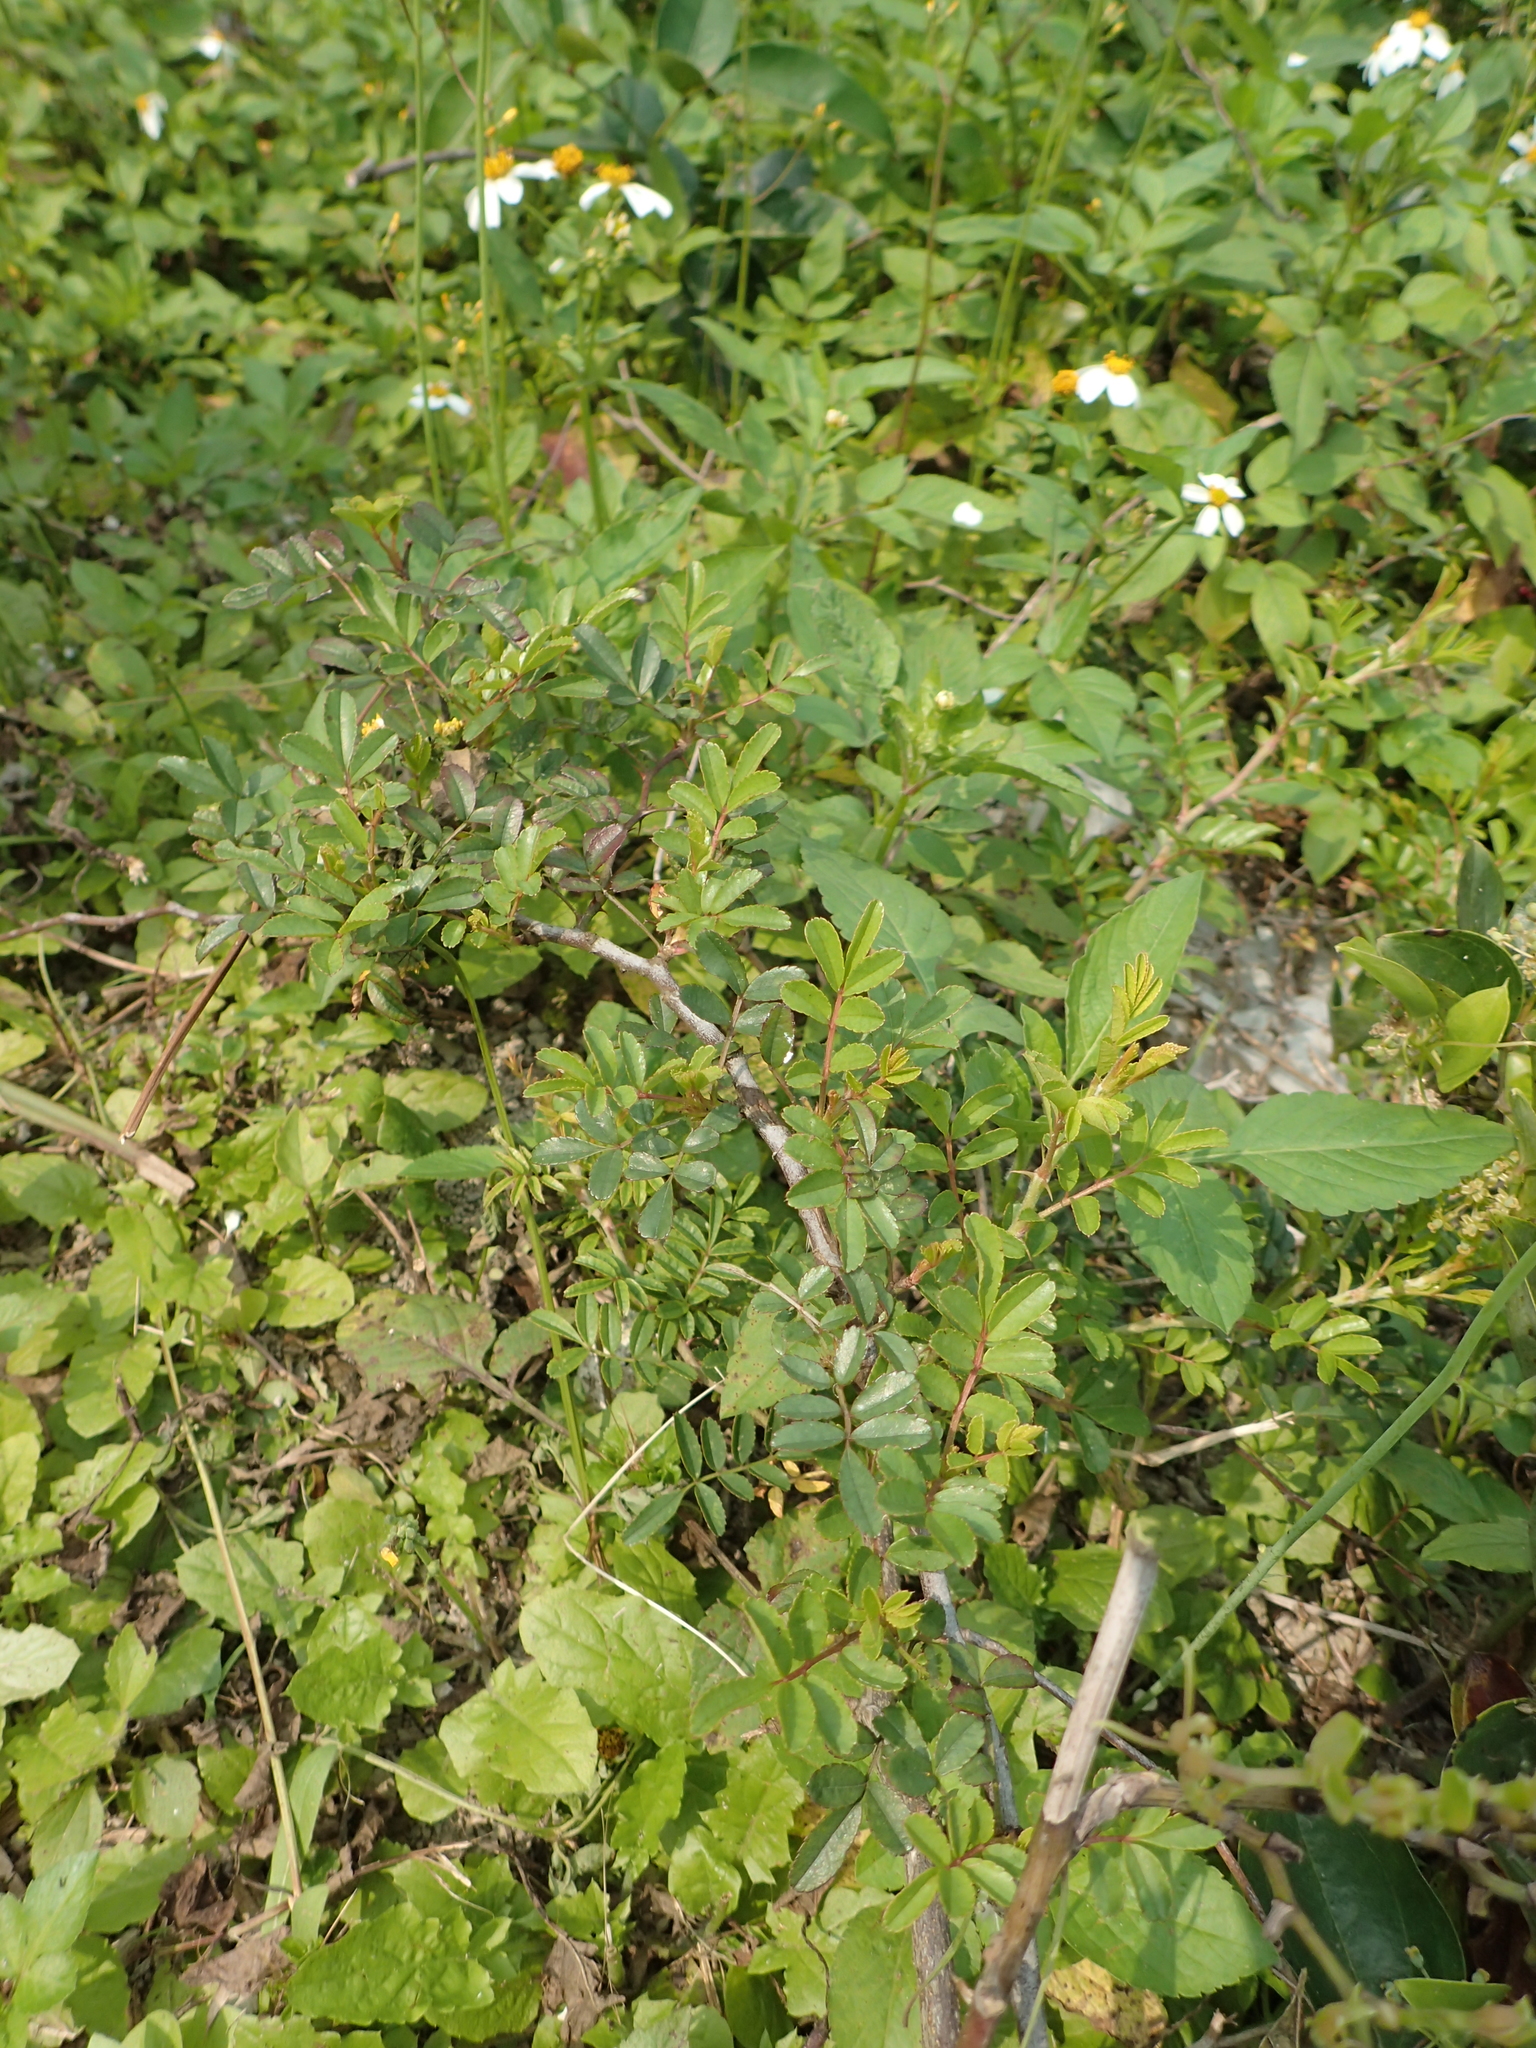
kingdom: Plantae
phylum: Tracheophyta
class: Magnoliopsida
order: Rosales
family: Rosaceae
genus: Rosa
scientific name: Rosa bracteata
